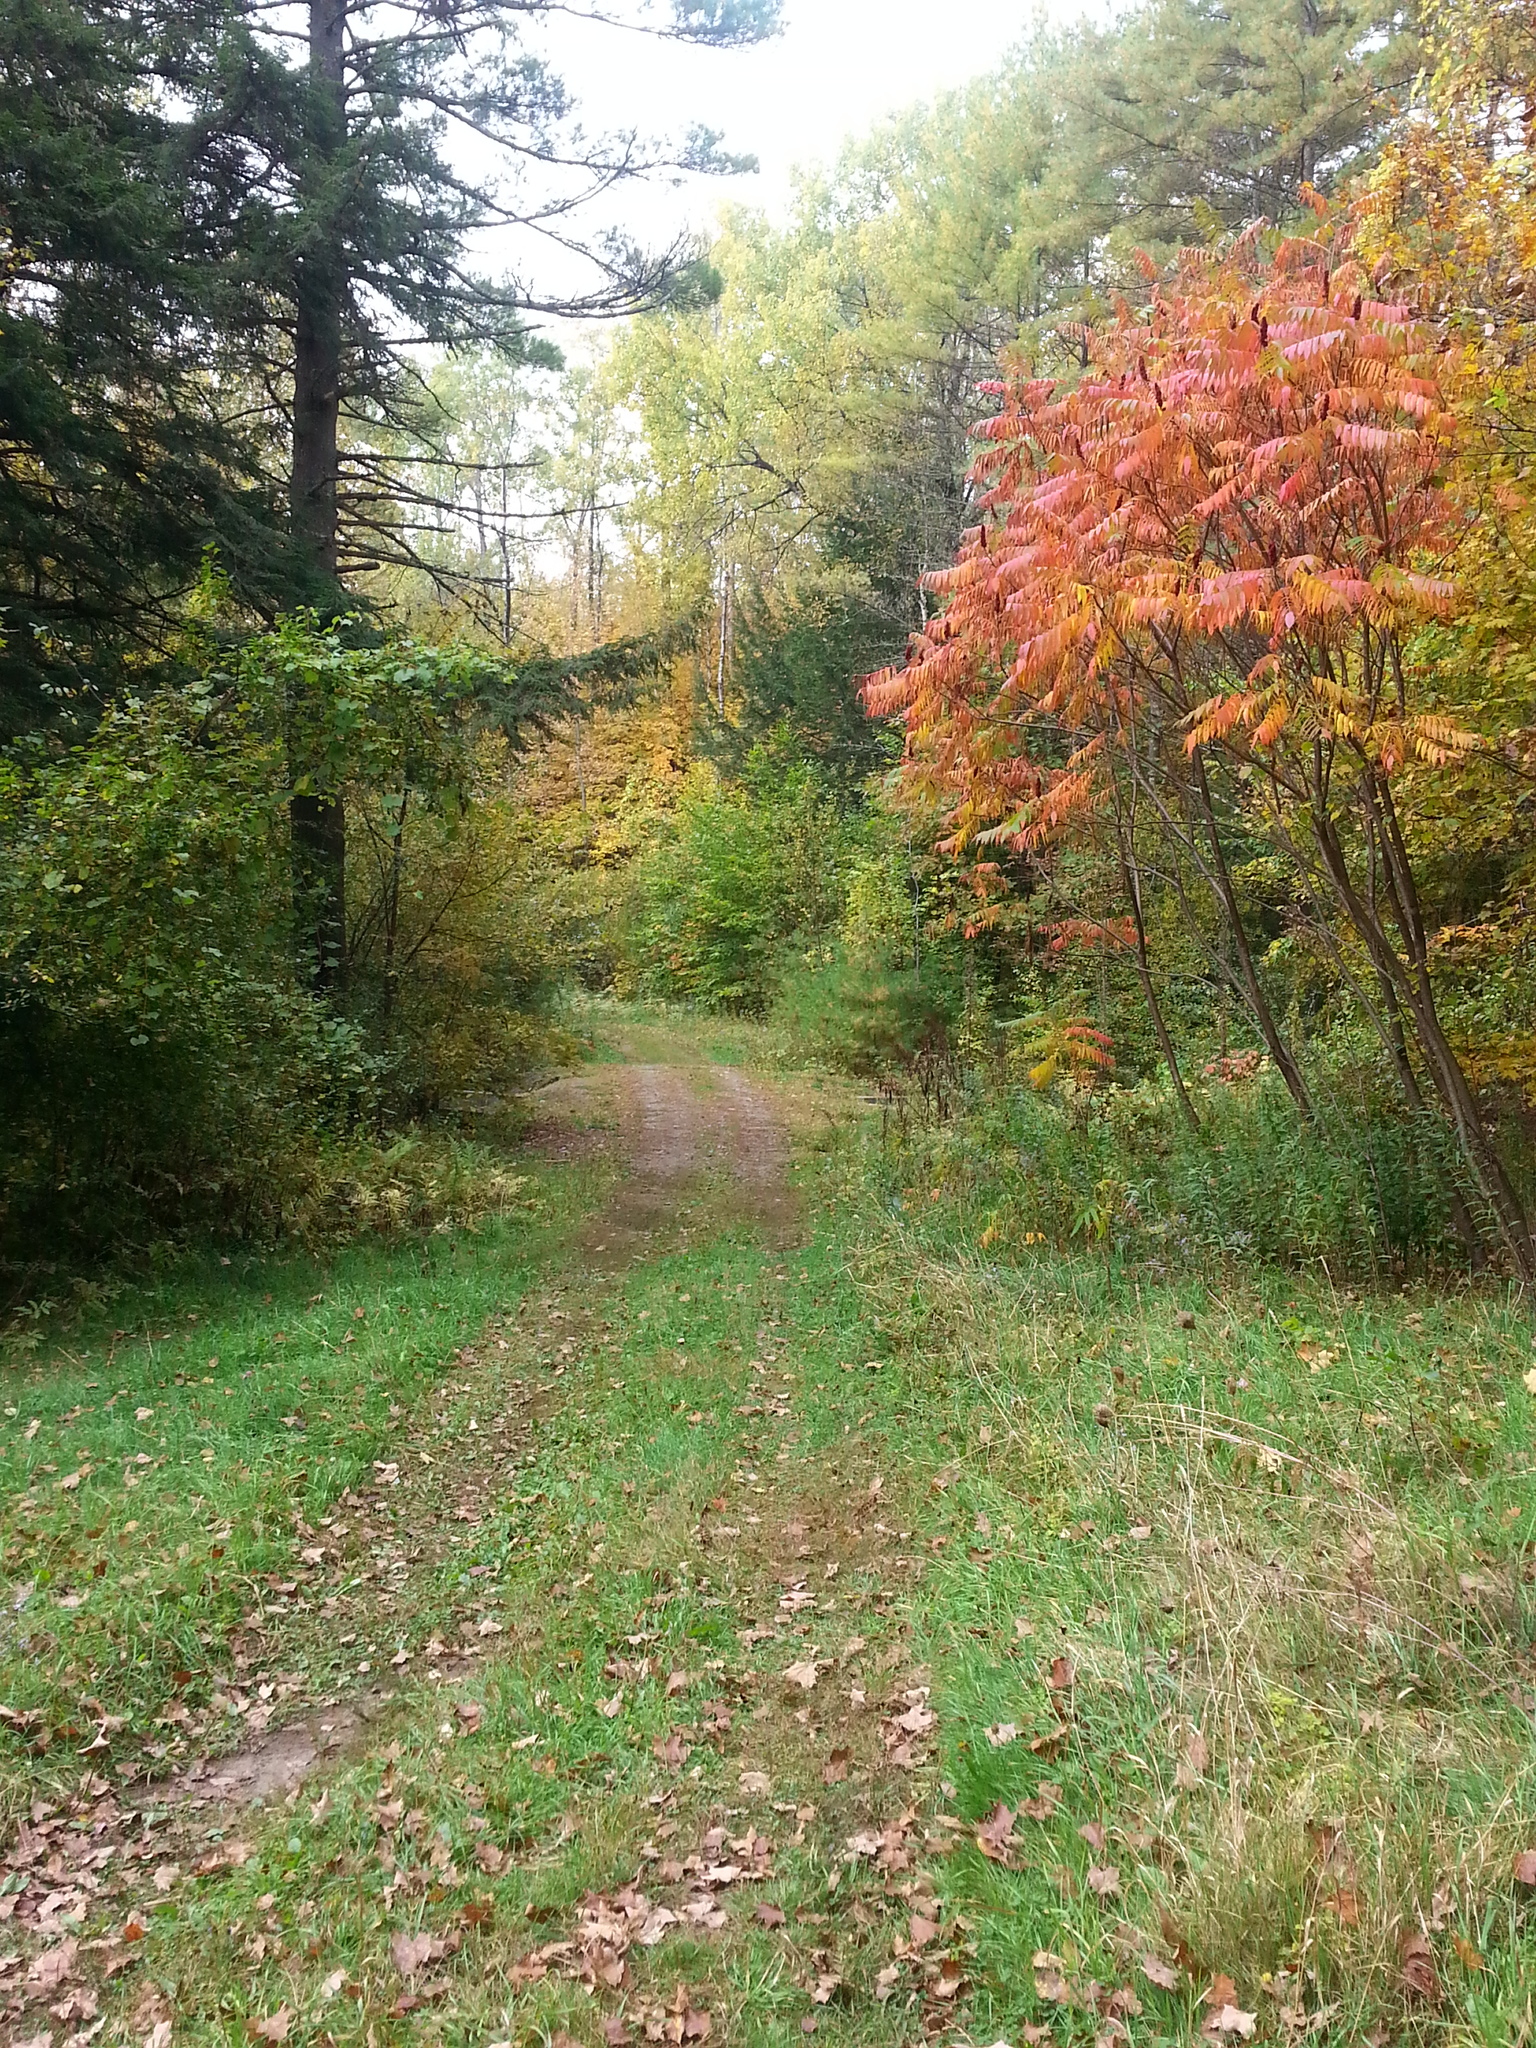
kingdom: Plantae
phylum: Tracheophyta
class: Magnoliopsida
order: Sapindales
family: Anacardiaceae
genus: Rhus
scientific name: Rhus typhina
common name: Staghorn sumac
